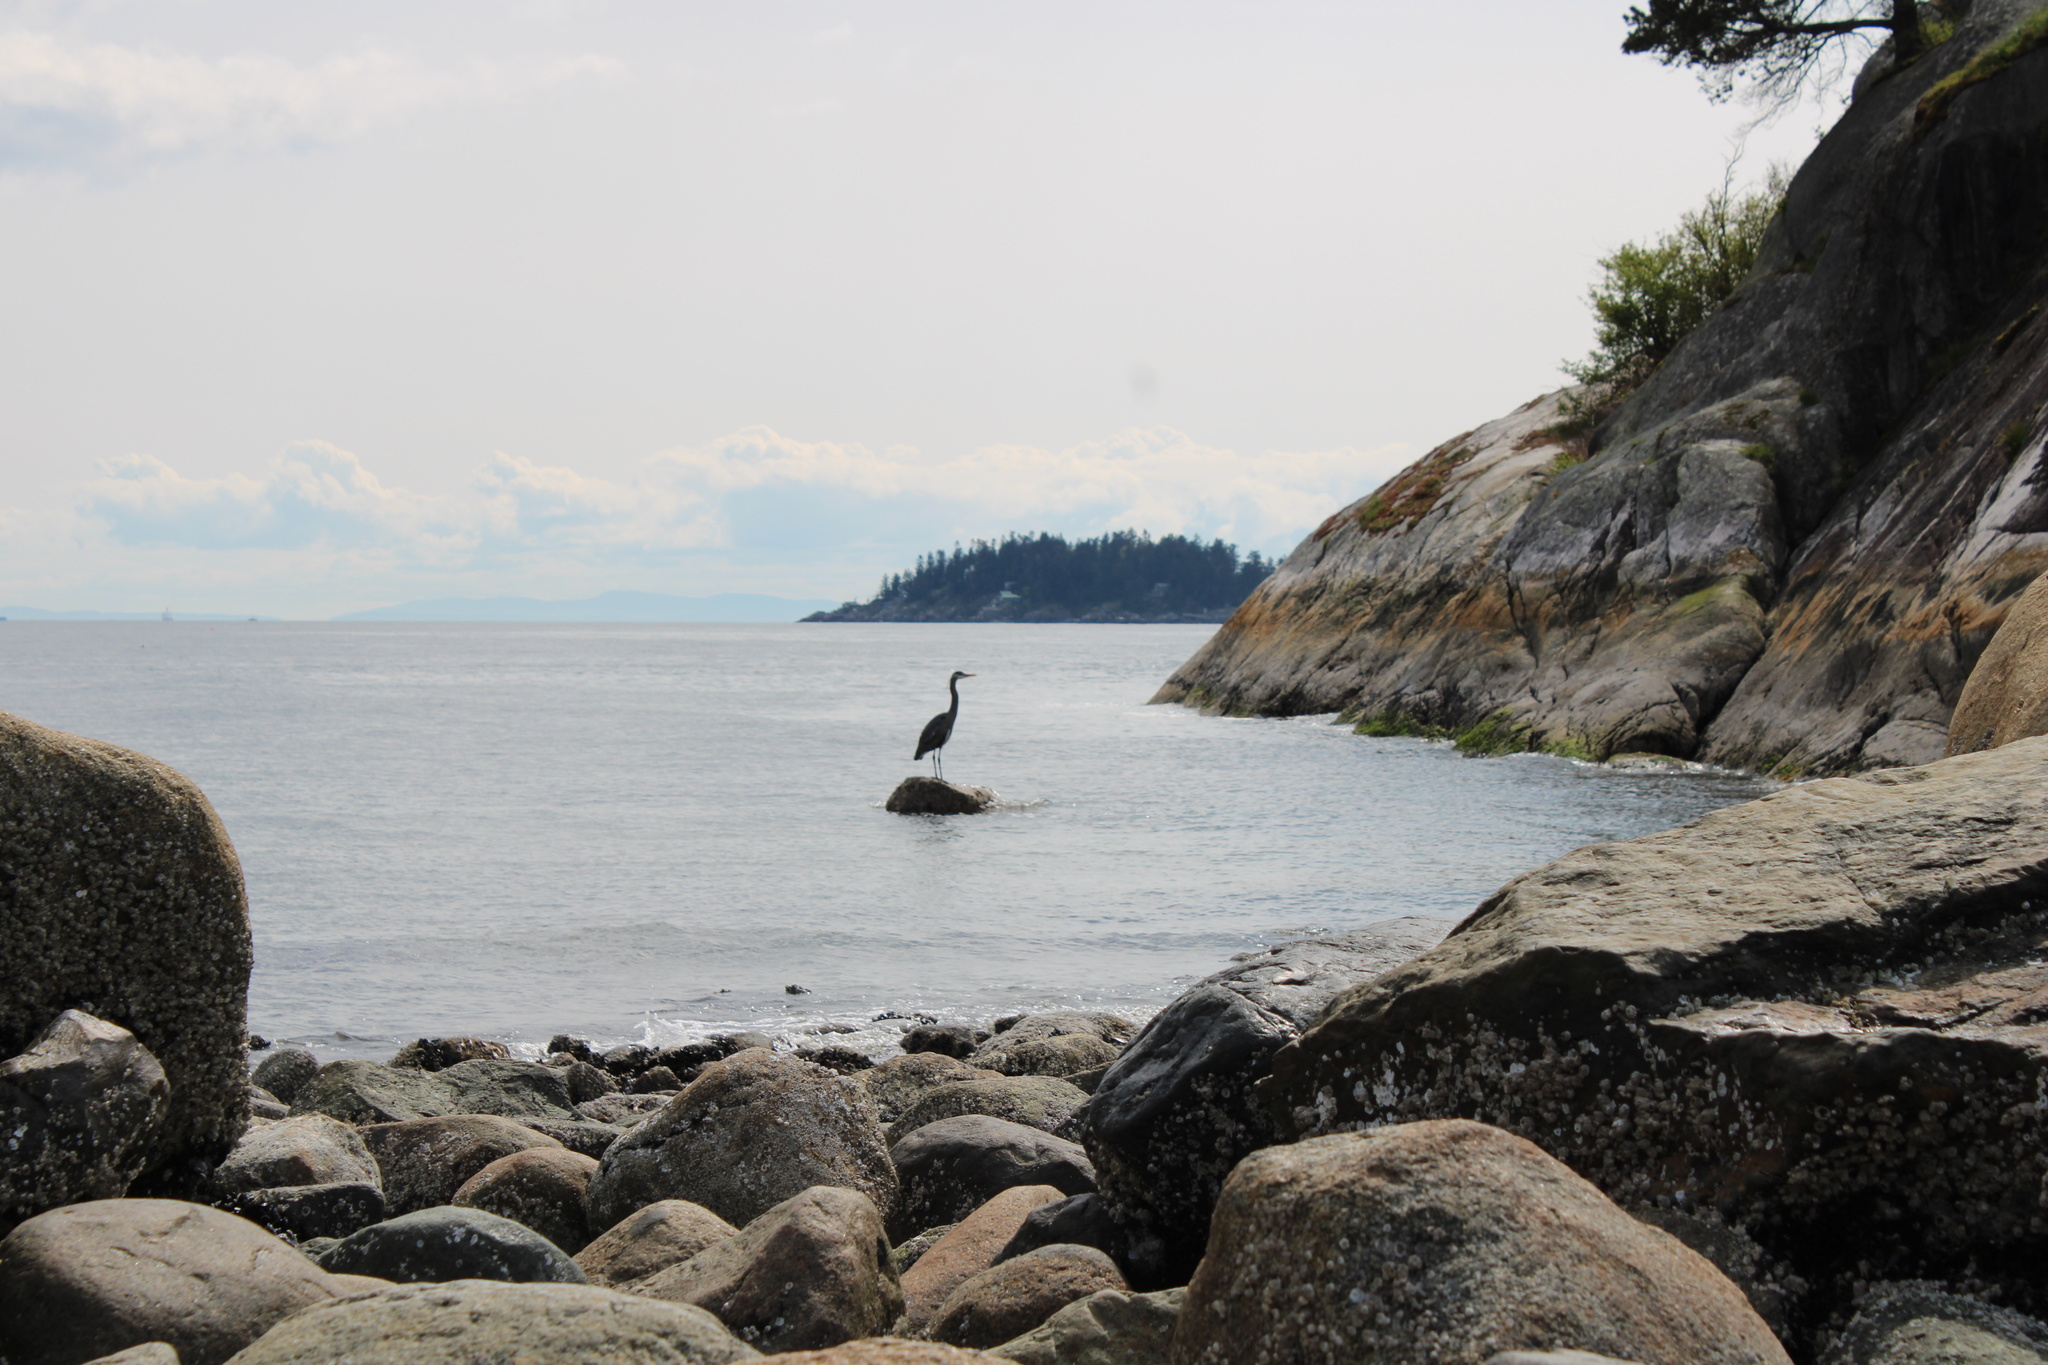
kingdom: Animalia
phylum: Chordata
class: Aves
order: Pelecaniformes
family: Ardeidae
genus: Ardea
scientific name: Ardea herodias
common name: Great blue heron
